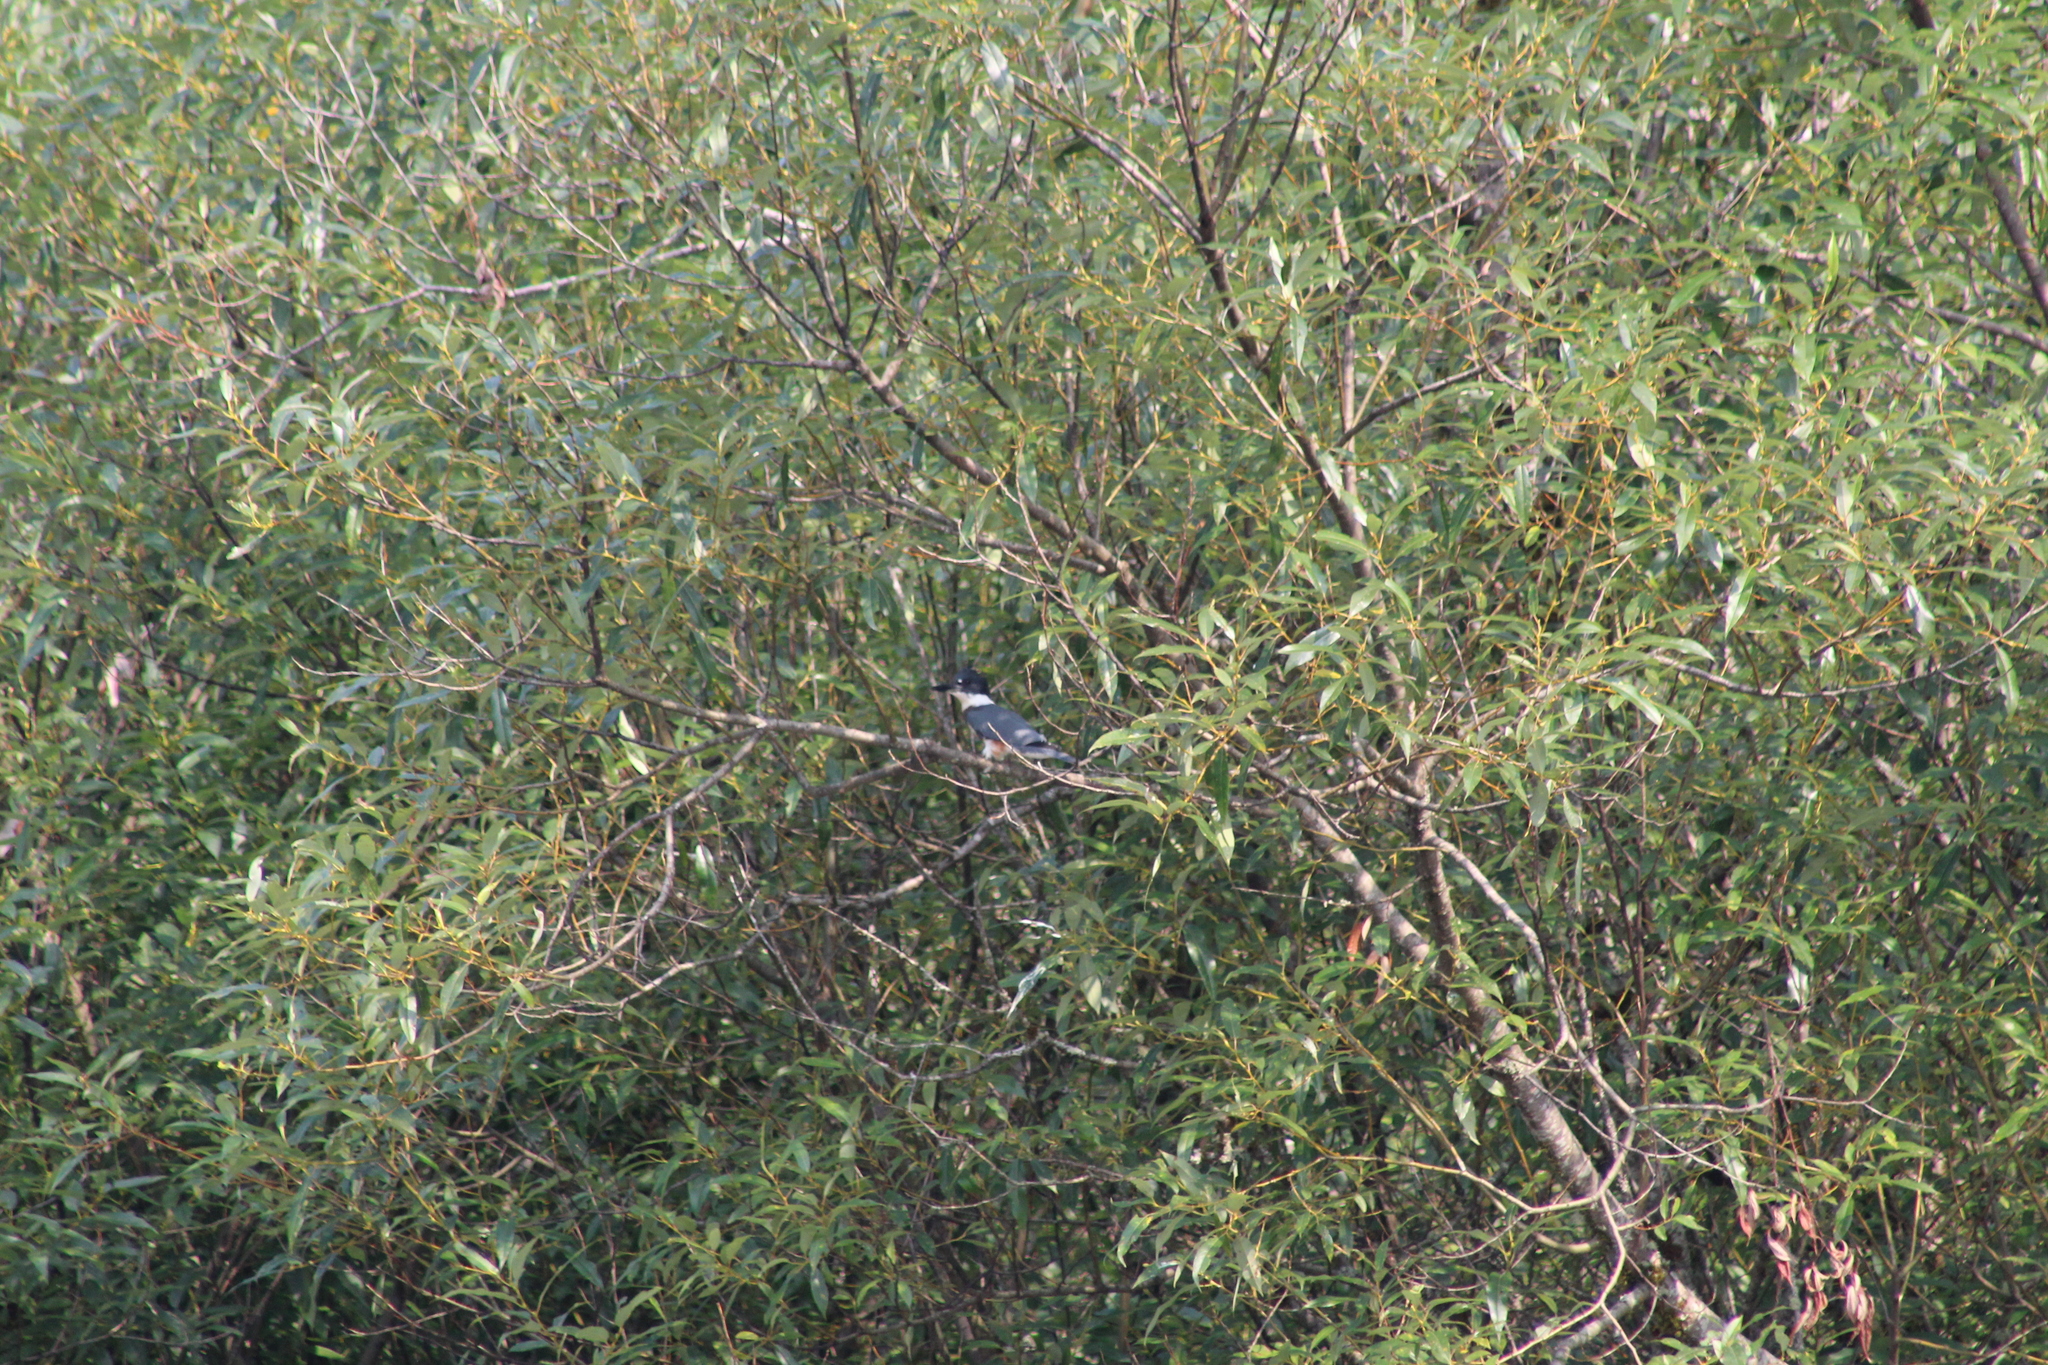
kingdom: Animalia
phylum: Chordata
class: Aves
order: Coraciiformes
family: Alcedinidae
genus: Megaceryle
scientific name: Megaceryle alcyon
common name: Belted kingfisher
